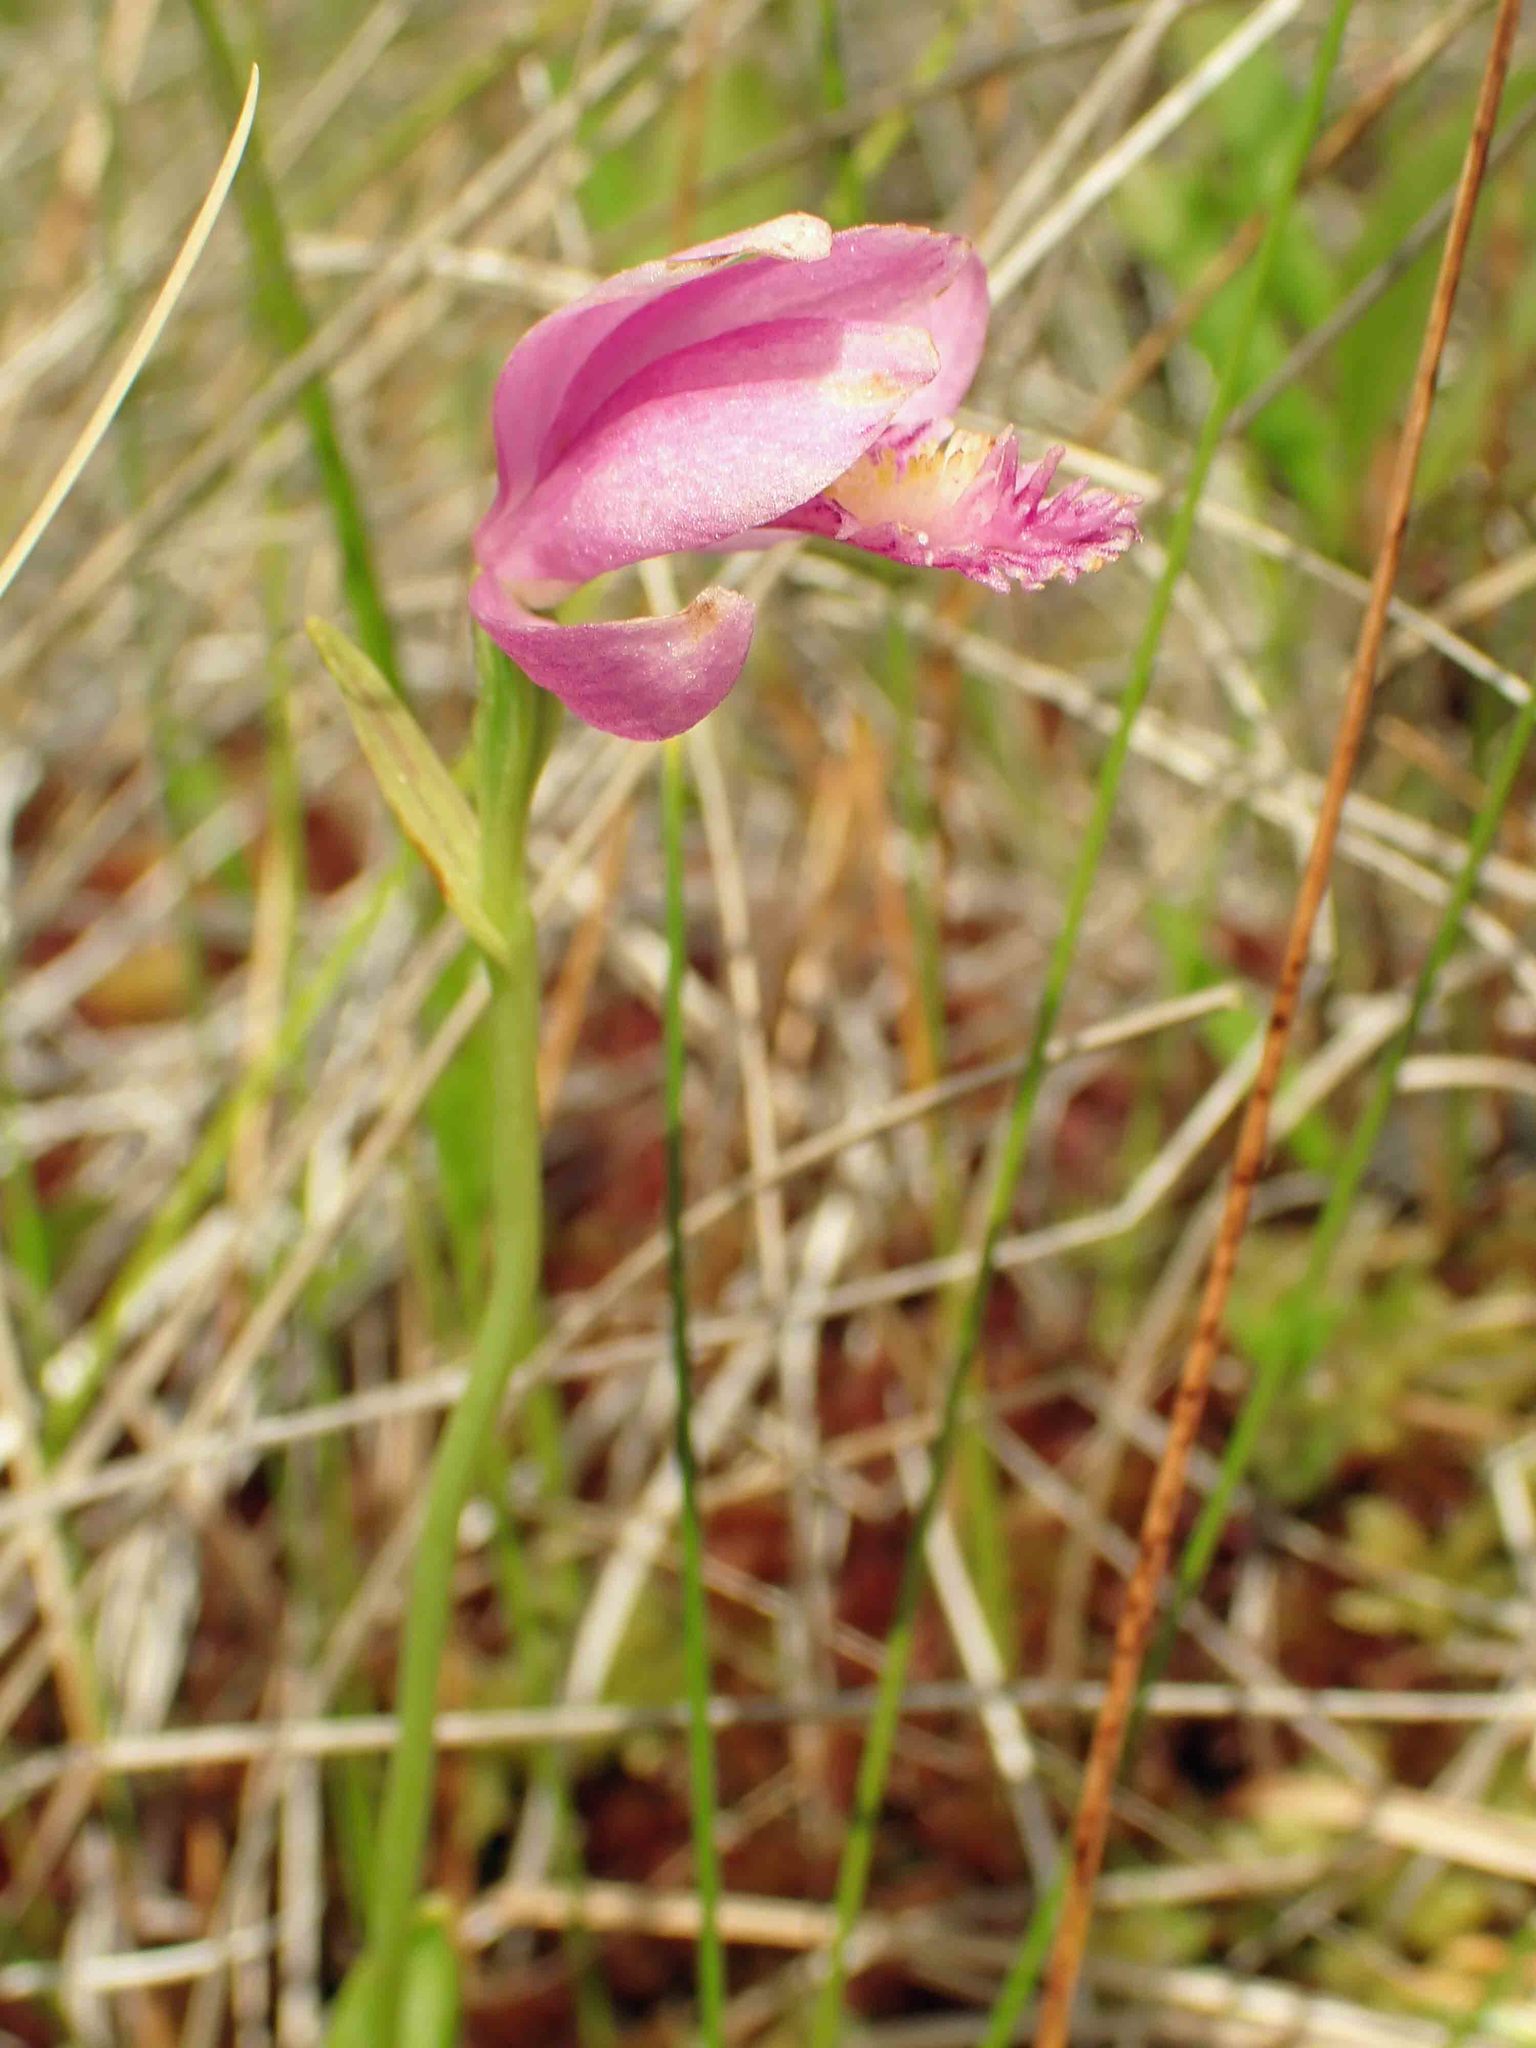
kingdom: Plantae
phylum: Tracheophyta
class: Liliopsida
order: Asparagales
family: Orchidaceae
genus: Pogonia
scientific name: Pogonia ophioglossoides
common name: Rose pogonia
